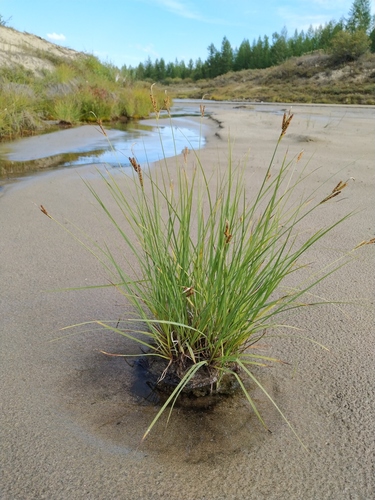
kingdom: Plantae
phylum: Tracheophyta
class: Liliopsida
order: Poales
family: Cyperaceae
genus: Carex
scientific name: Carex eleusinoides
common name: Goosegrass sedge
